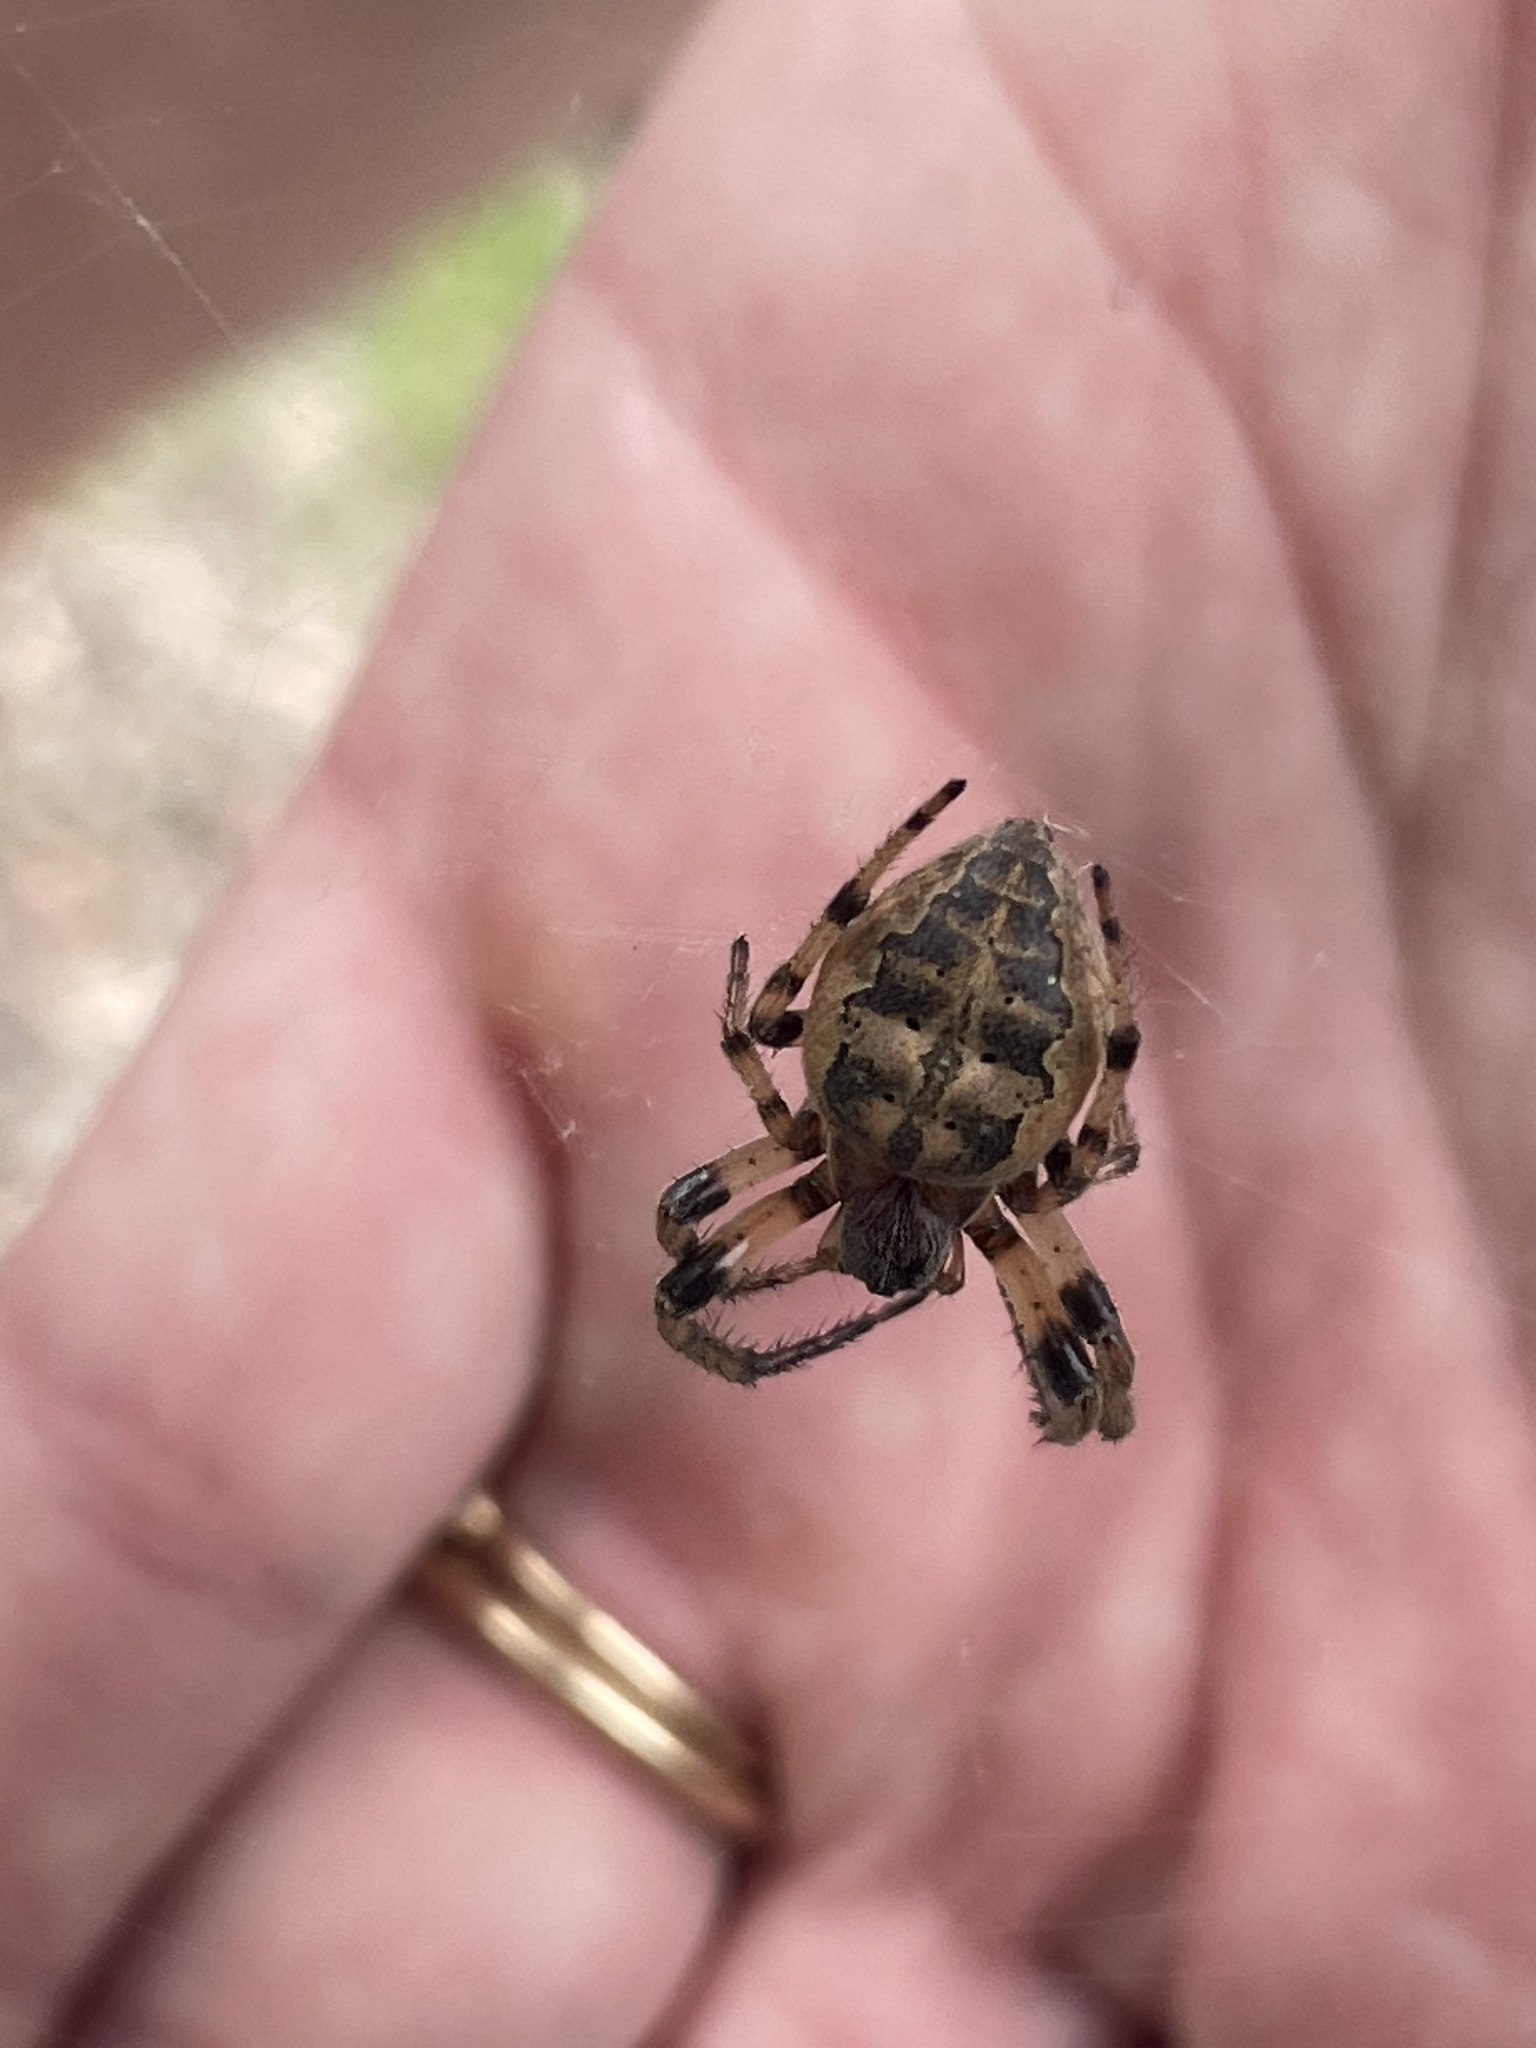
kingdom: Animalia
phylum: Arthropoda
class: Arachnida
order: Araneae
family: Araneidae
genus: Larinioides
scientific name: Larinioides cornutus
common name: Furrow orbweaver
